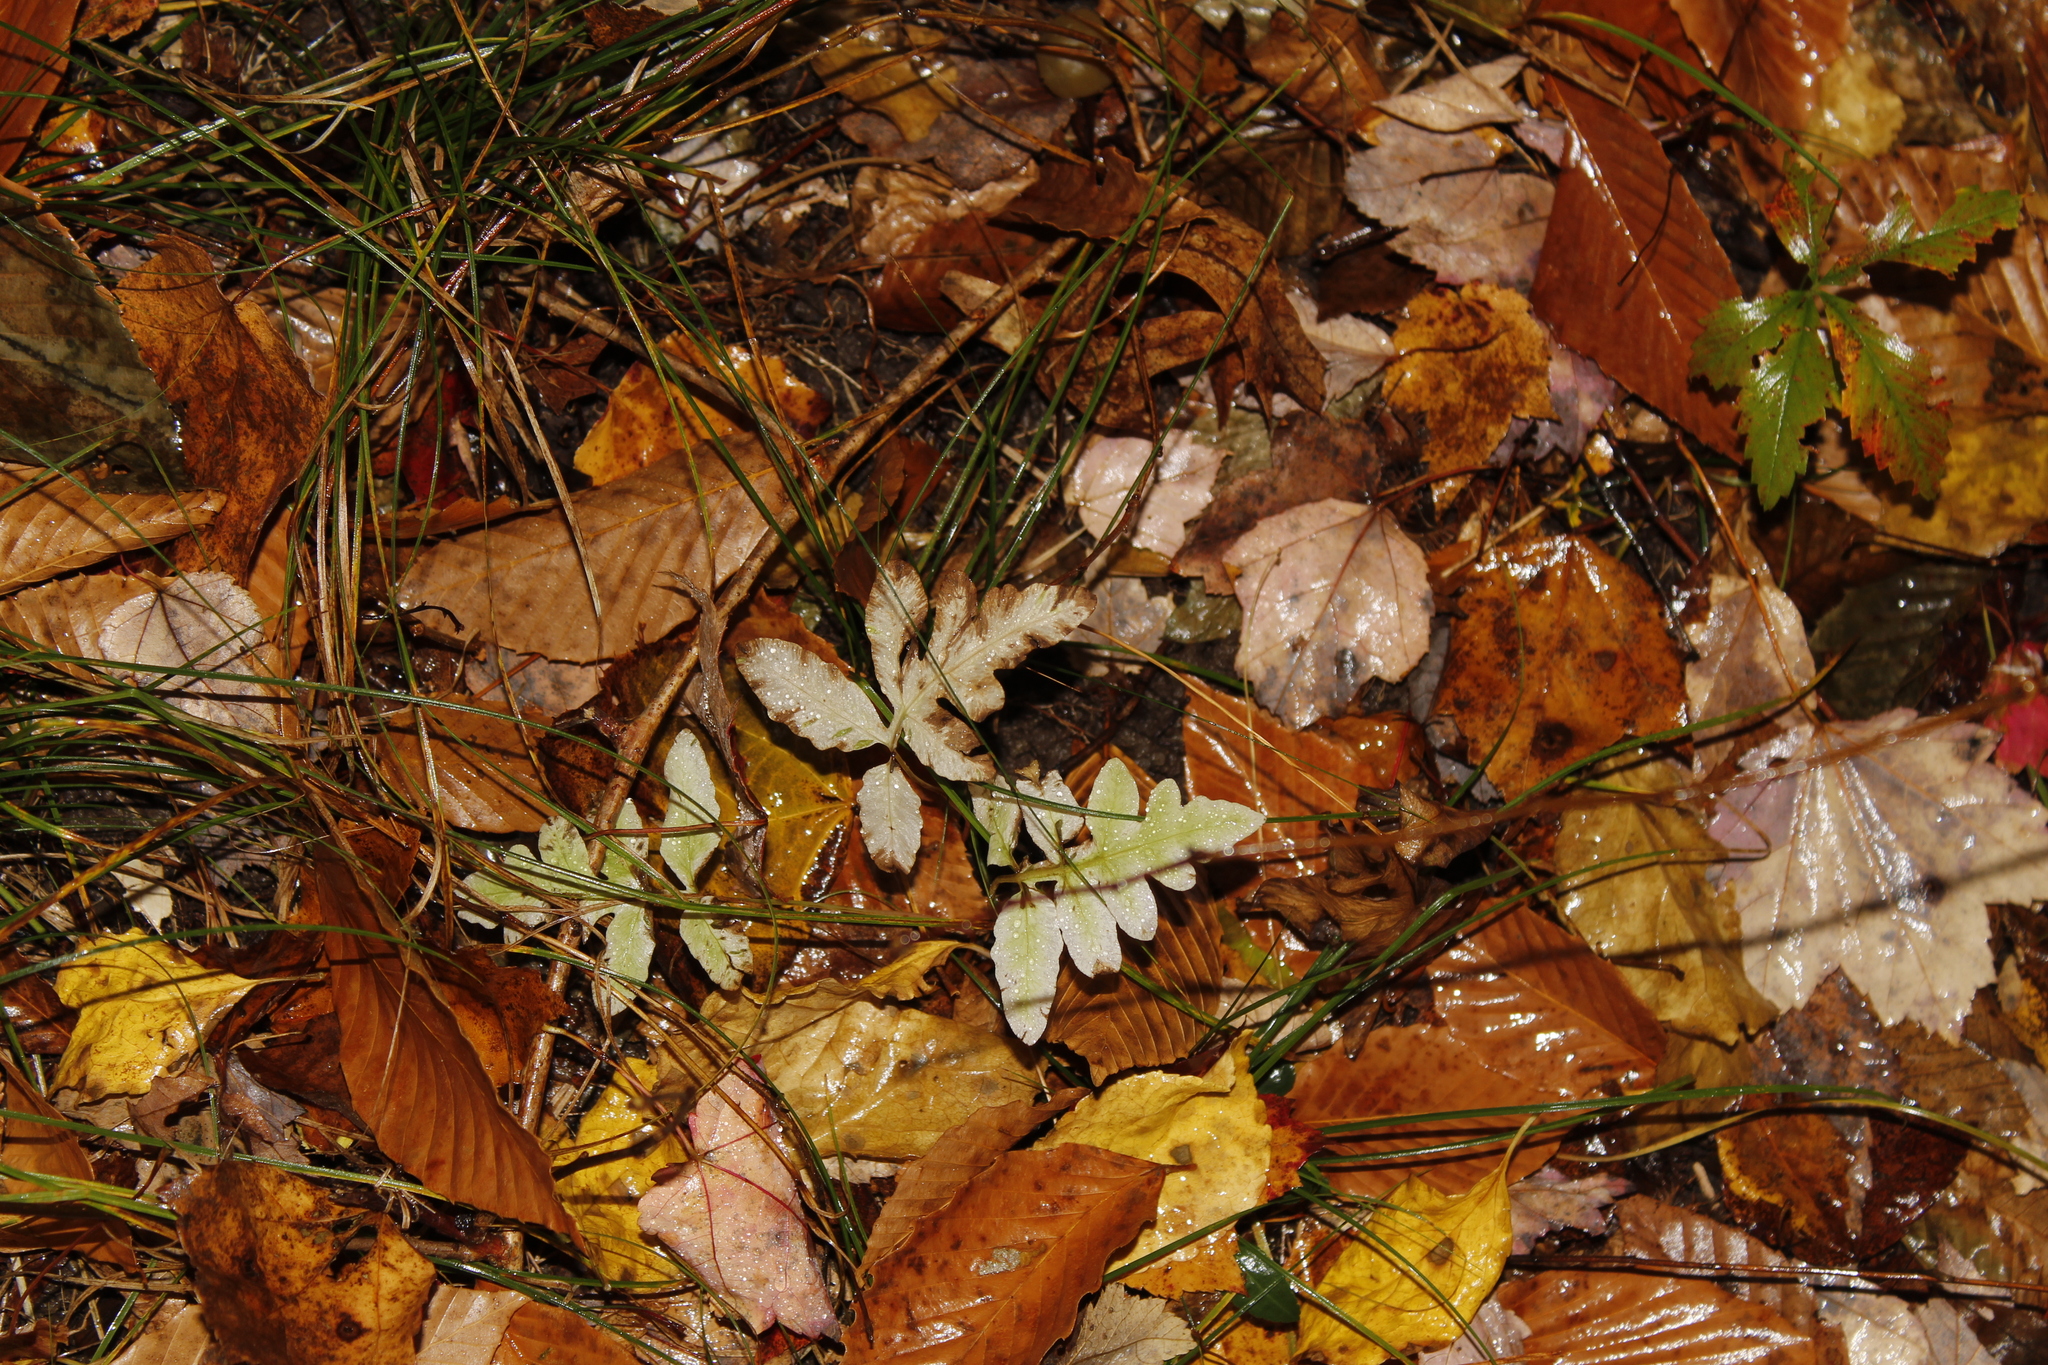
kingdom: Plantae
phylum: Tracheophyta
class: Polypodiopsida
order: Polypodiales
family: Onocleaceae
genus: Onoclea
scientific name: Onoclea sensibilis
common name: Sensitive fern
